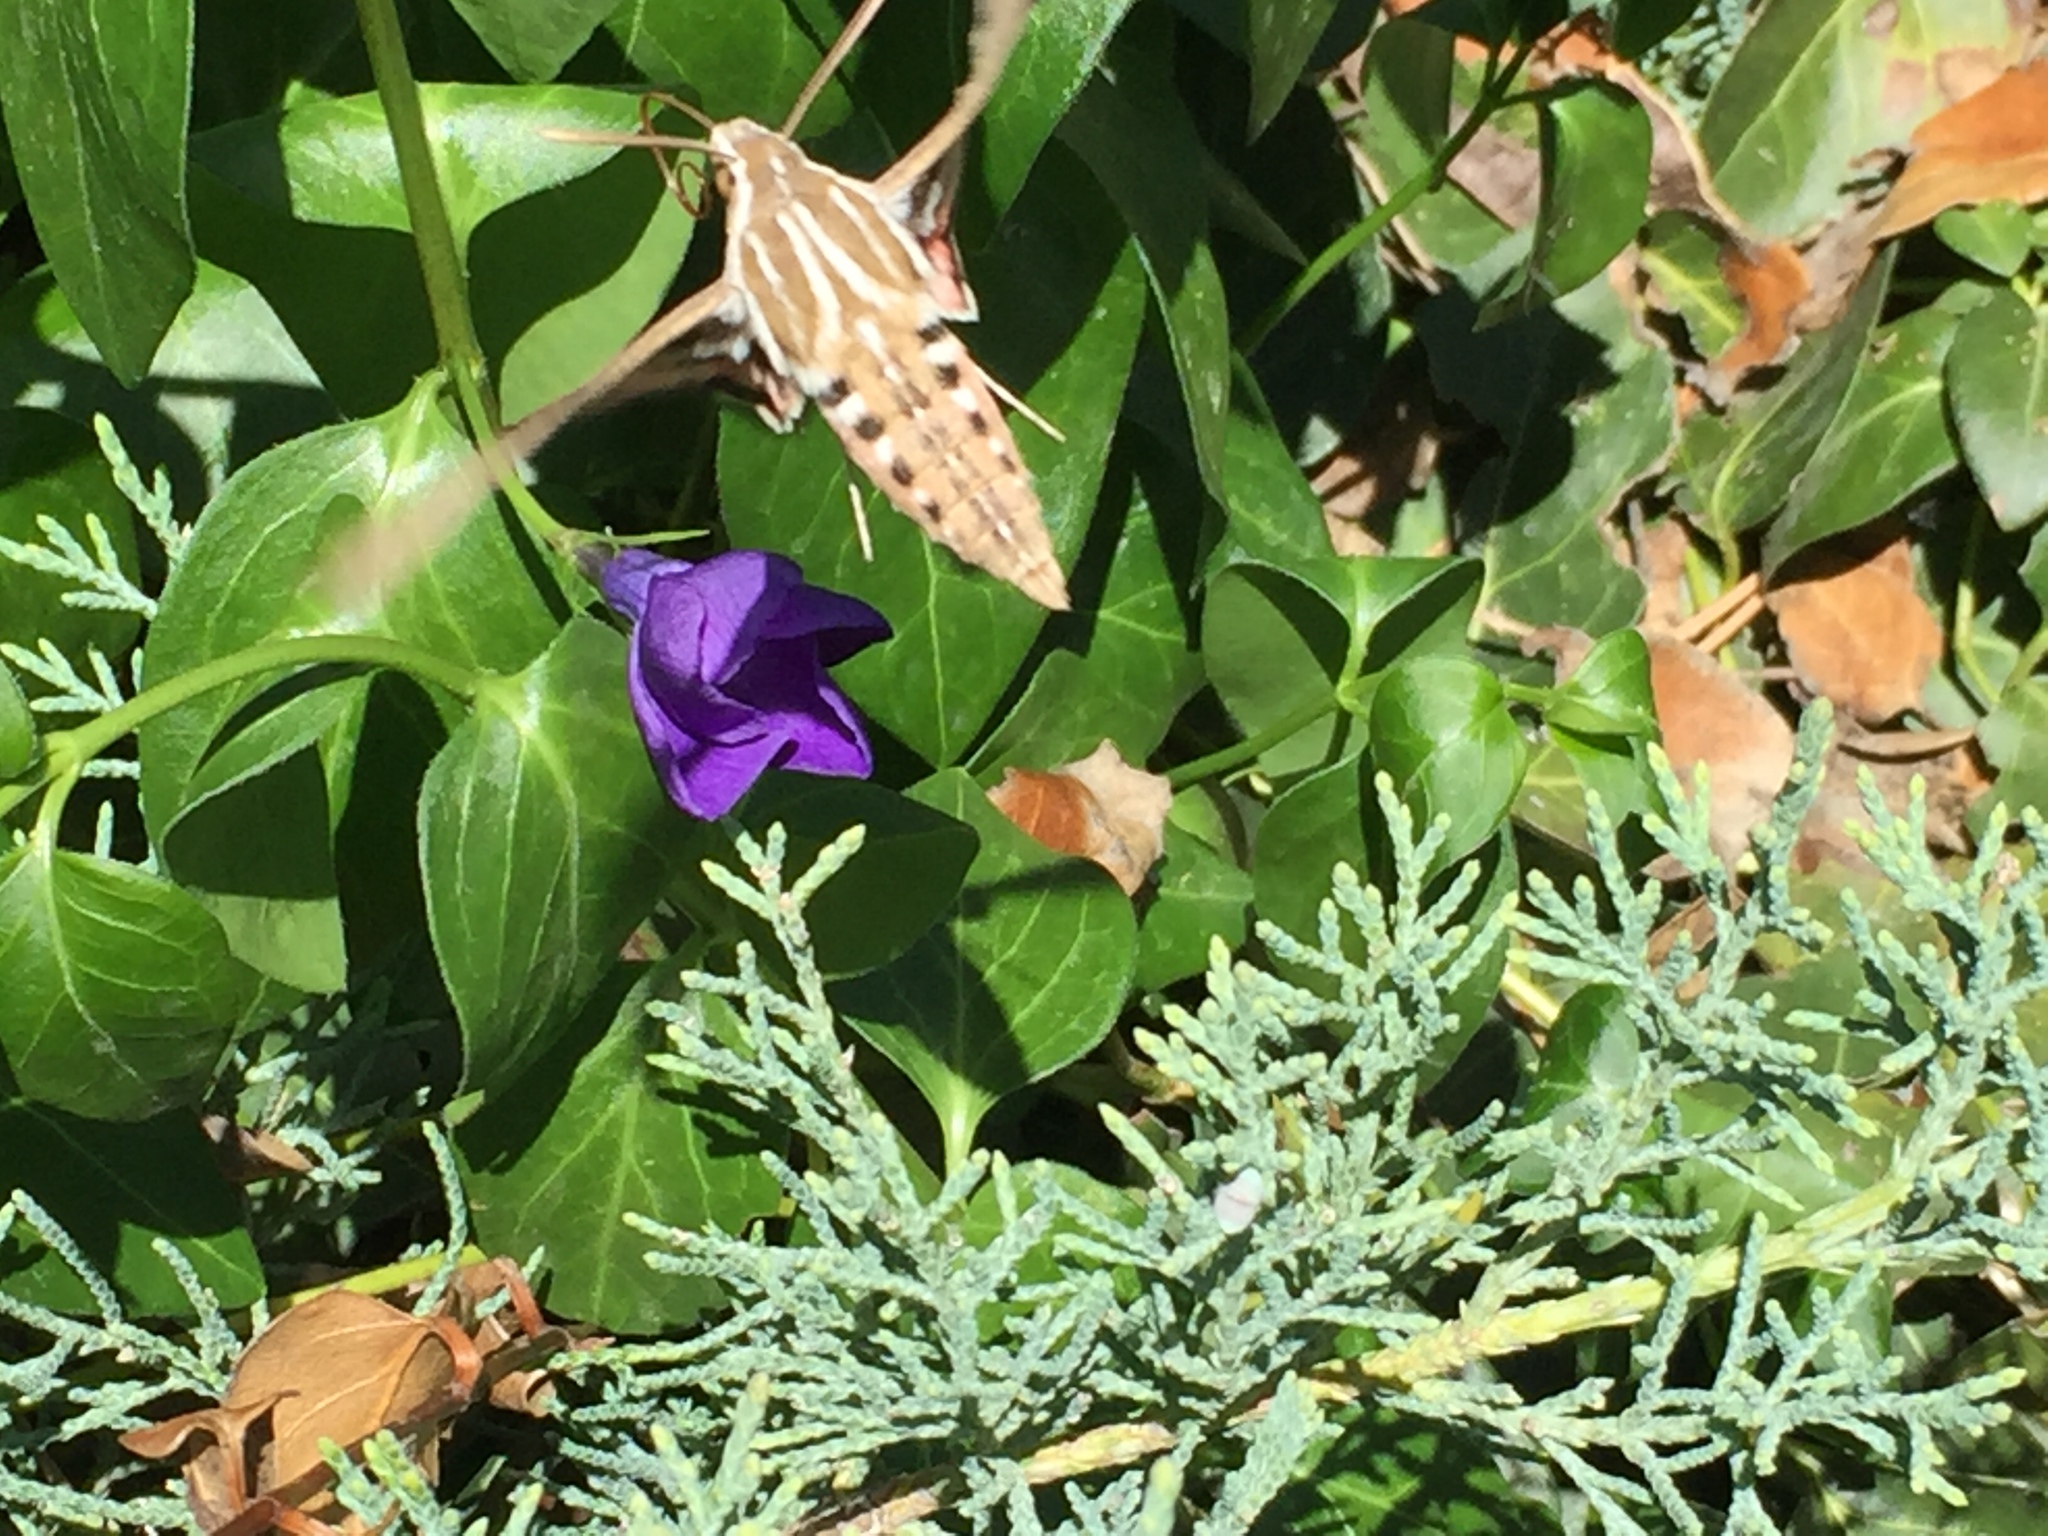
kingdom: Animalia
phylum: Arthropoda
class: Insecta
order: Lepidoptera
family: Sphingidae
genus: Hyles
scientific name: Hyles lineata
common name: White-lined sphinx
